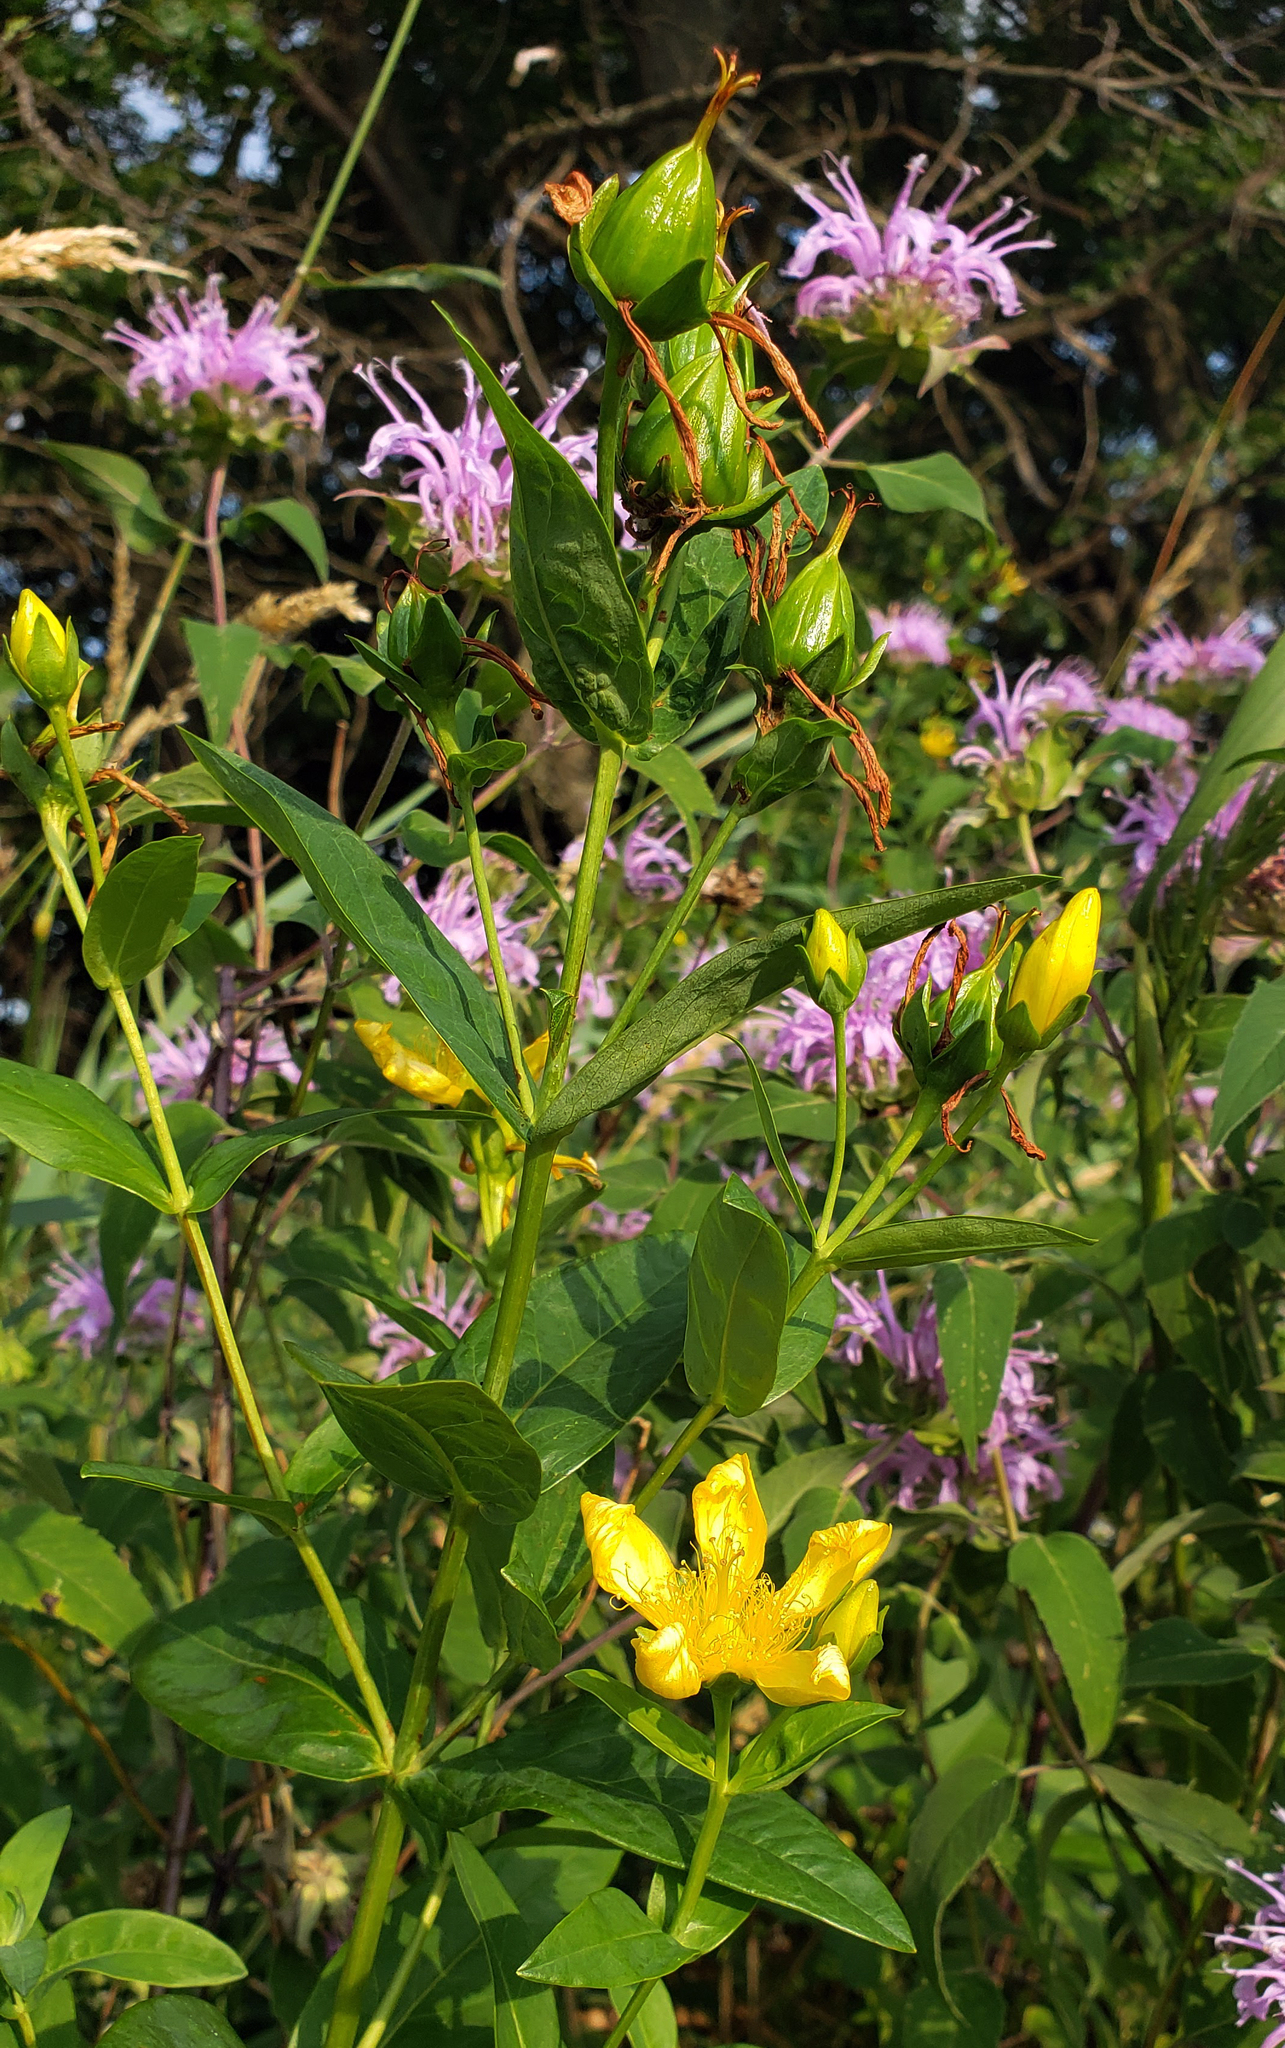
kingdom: Plantae
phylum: Tracheophyta
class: Magnoliopsida
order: Malpighiales
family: Hypericaceae
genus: Hypericum
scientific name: Hypericum ascyron
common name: Giant st. john's-wort
